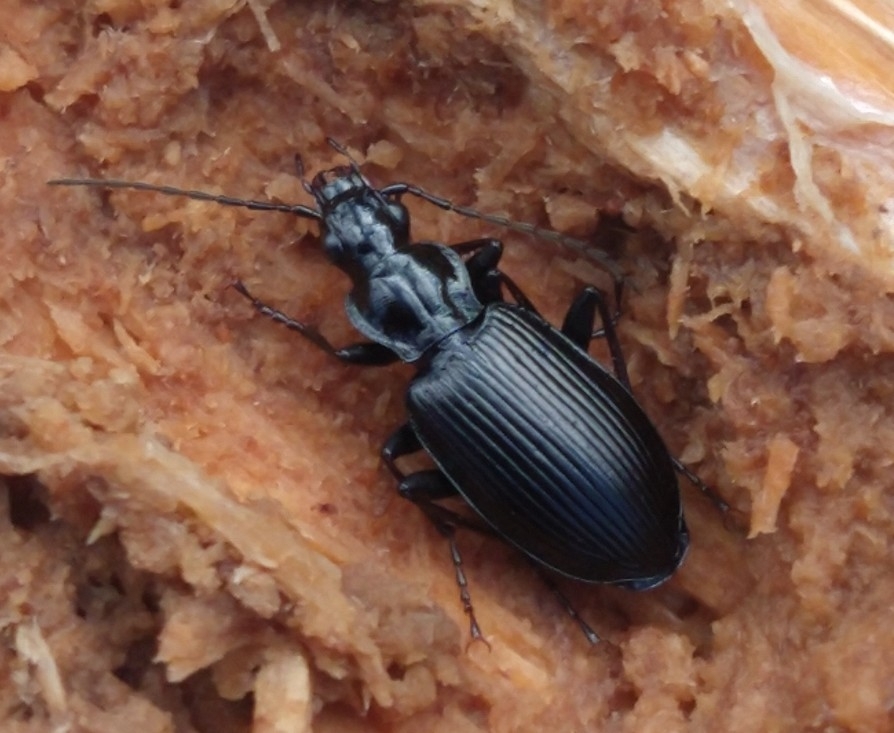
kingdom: Animalia
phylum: Arthropoda
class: Insecta
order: Coleoptera
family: Carabidae
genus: Pterostichus
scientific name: Pterostichus niger
